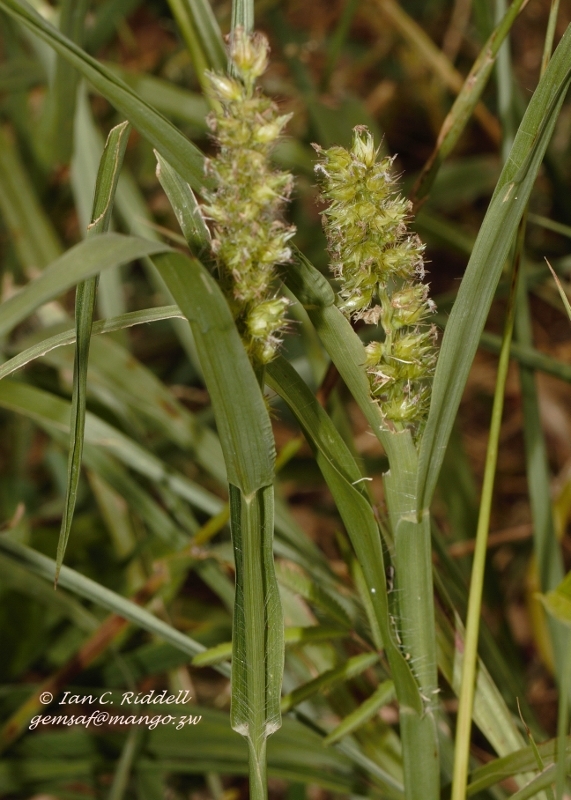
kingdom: Plantae
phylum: Tracheophyta
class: Liliopsida
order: Poales
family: Poaceae
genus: Cenchrus
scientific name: Cenchrus biflorus
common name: Indian sandbur
